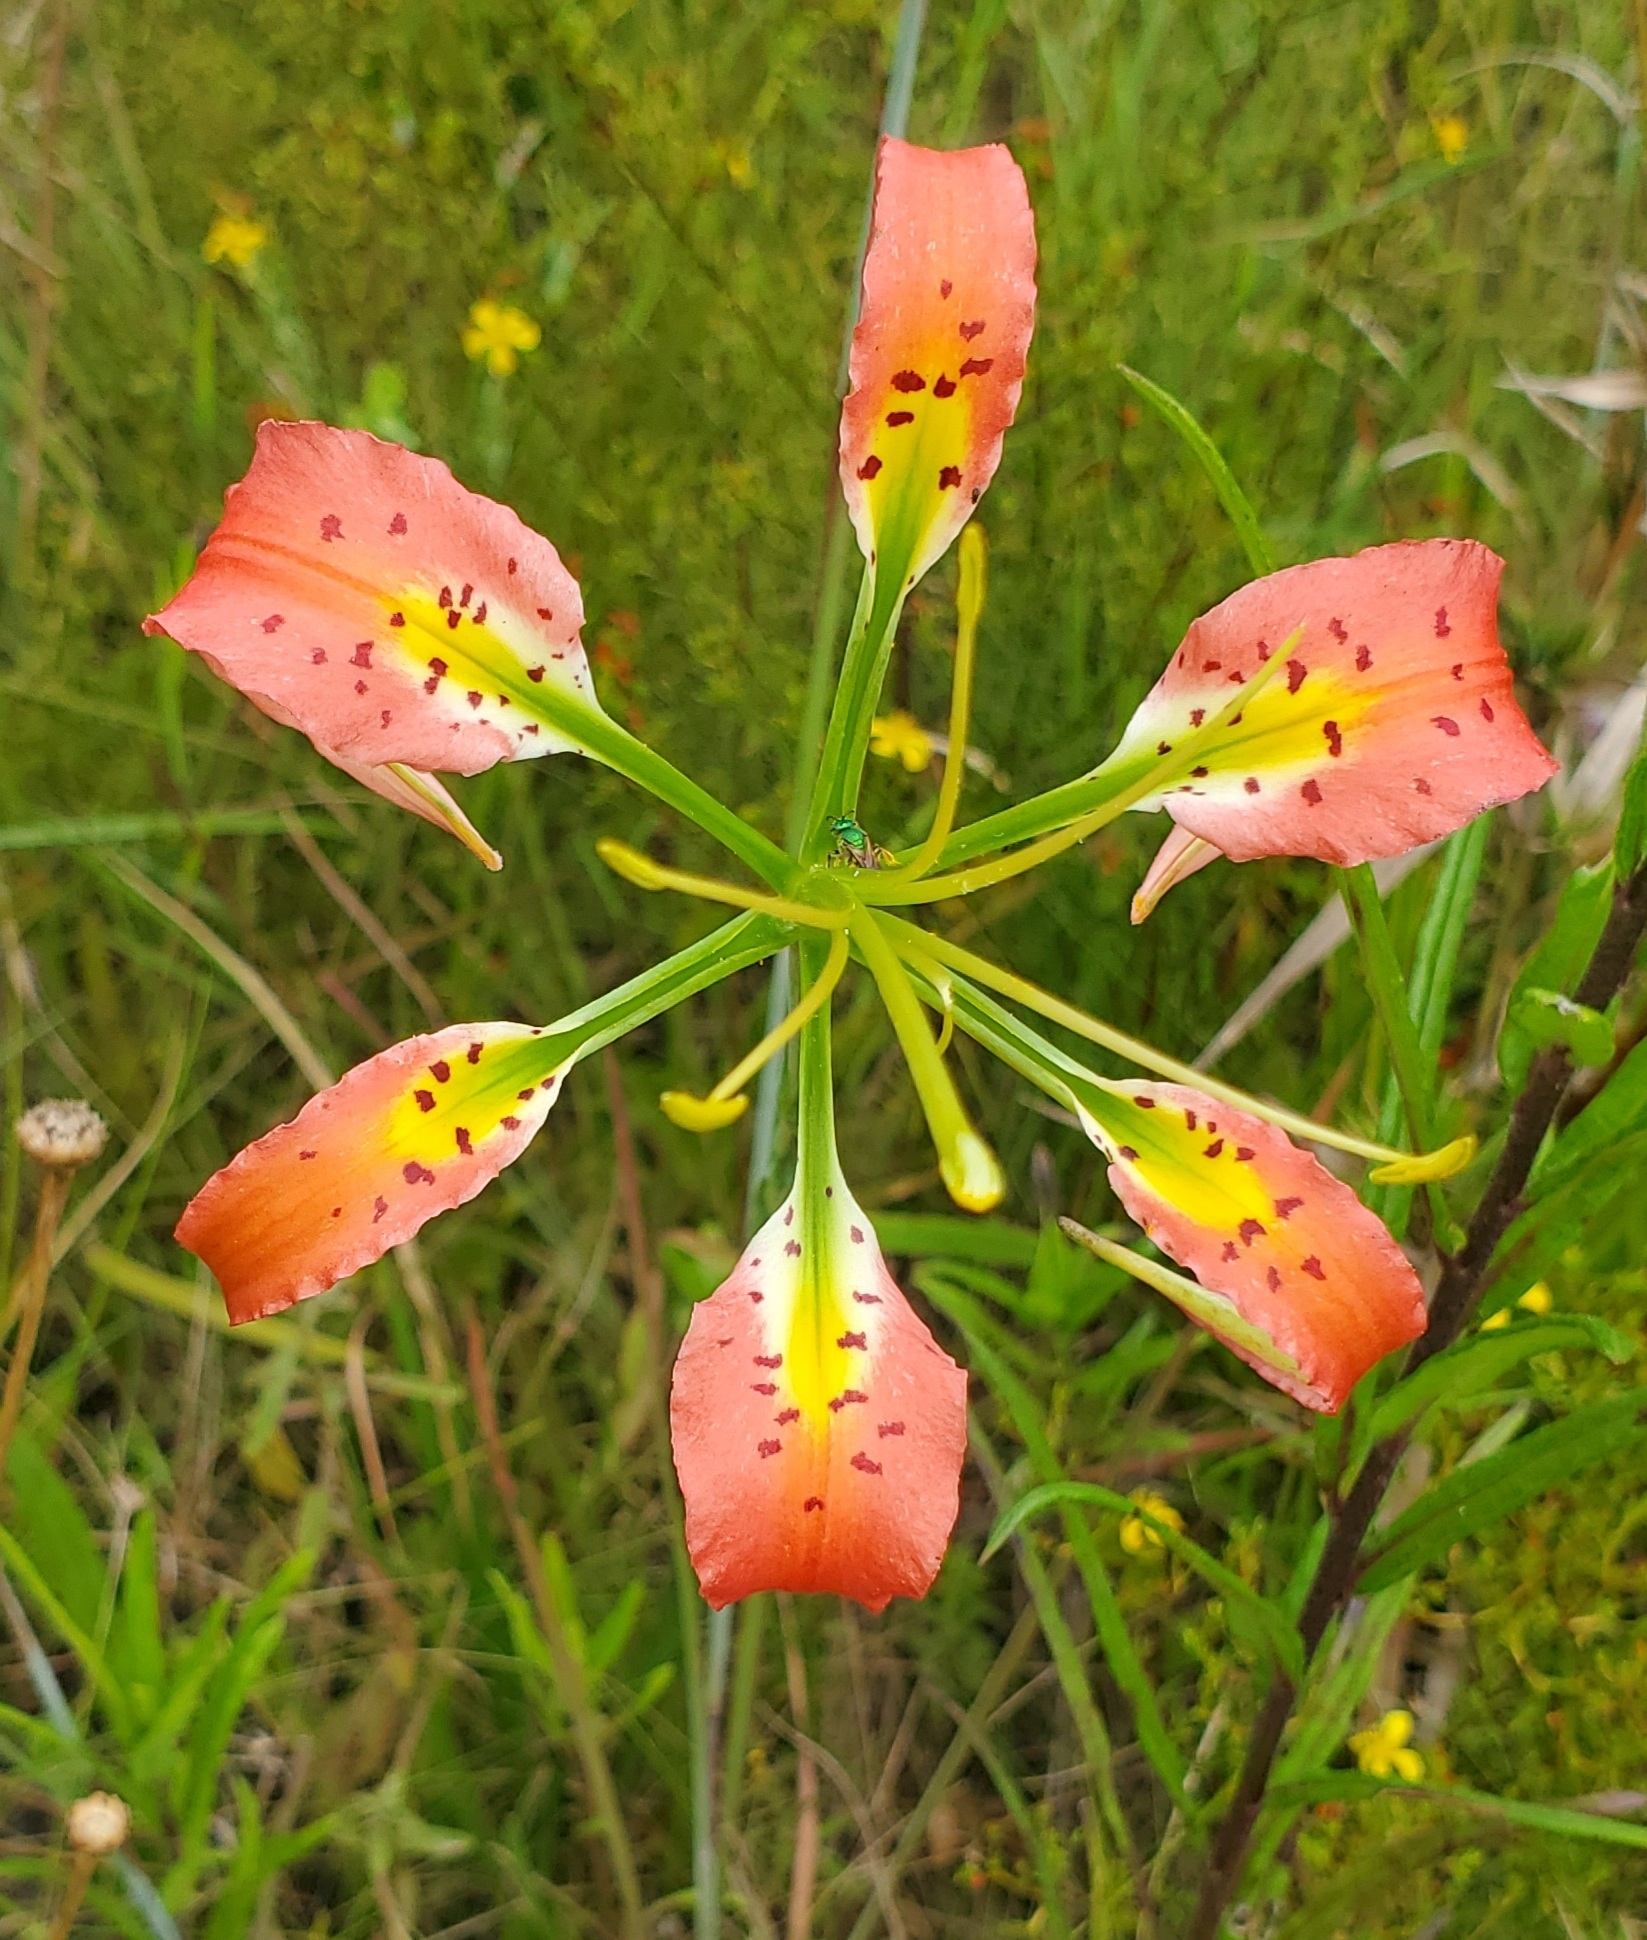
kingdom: Plantae
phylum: Tracheophyta
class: Liliopsida
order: Liliales
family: Liliaceae
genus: Lilium
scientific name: Lilium catesbaei
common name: Catesby's lily
